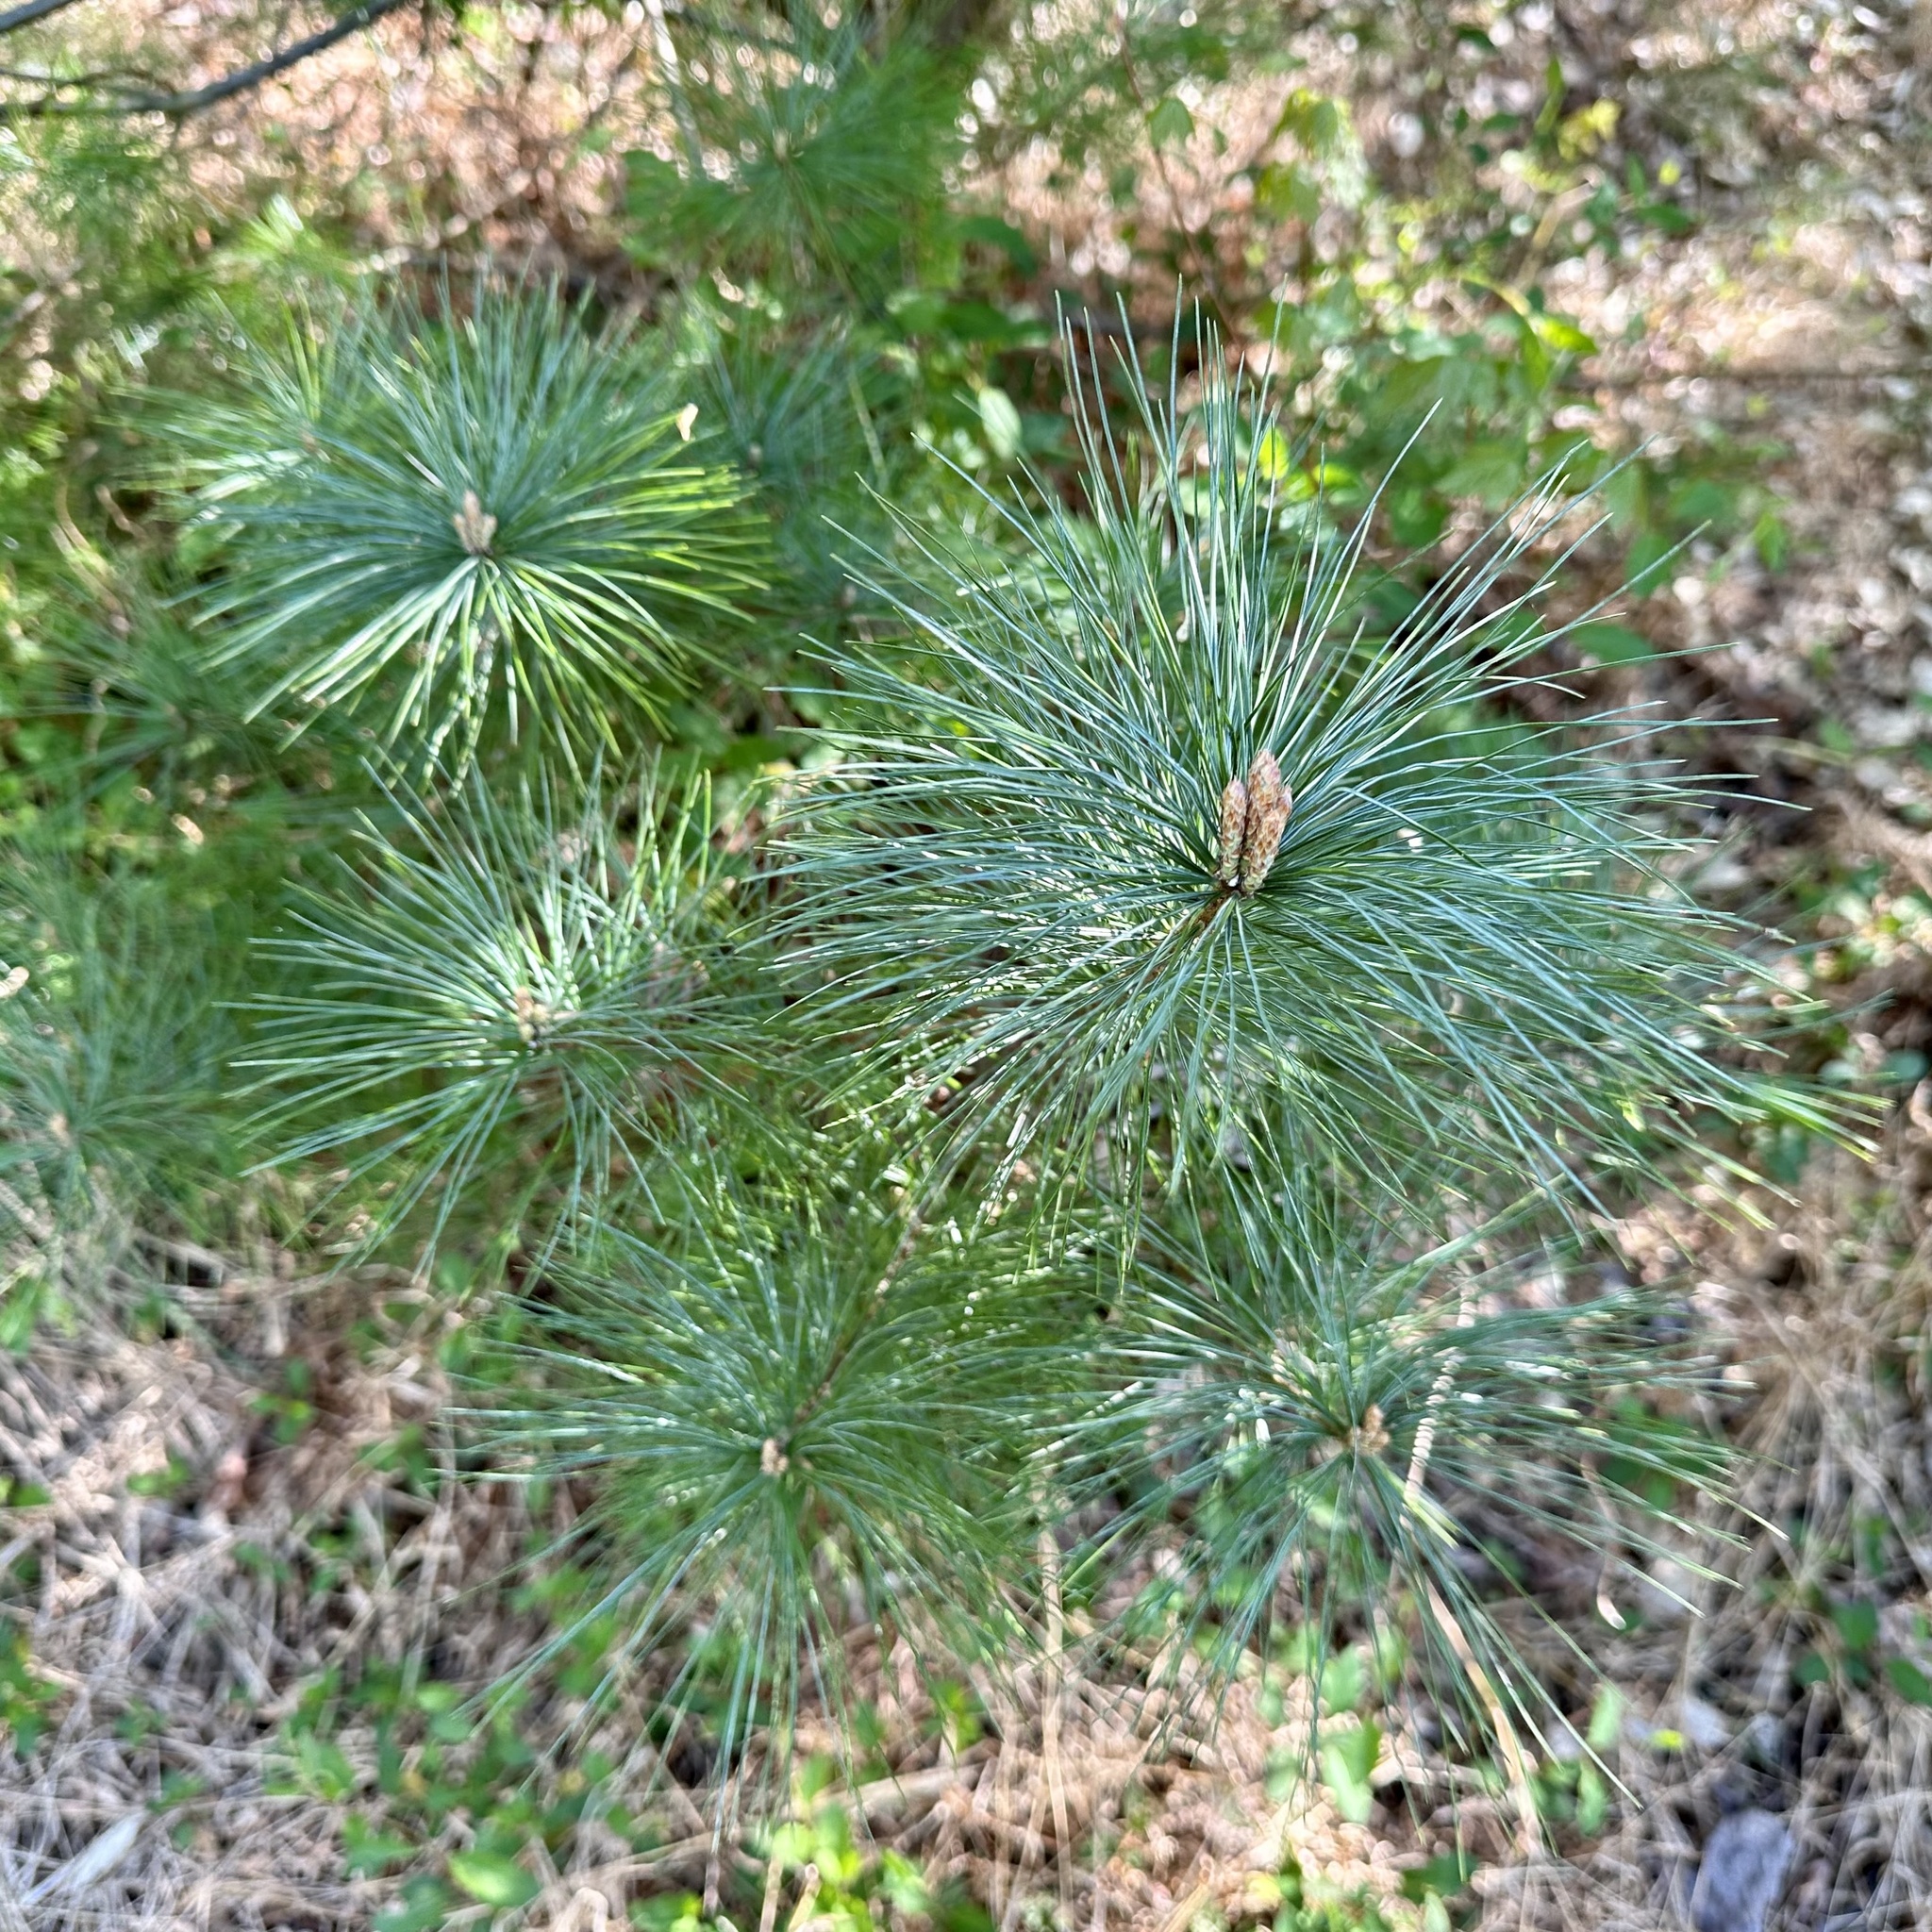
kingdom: Plantae
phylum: Tracheophyta
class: Pinopsida
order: Pinales
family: Pinaceae
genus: Pinus
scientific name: Pinus strobus
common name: Weymouth pine
